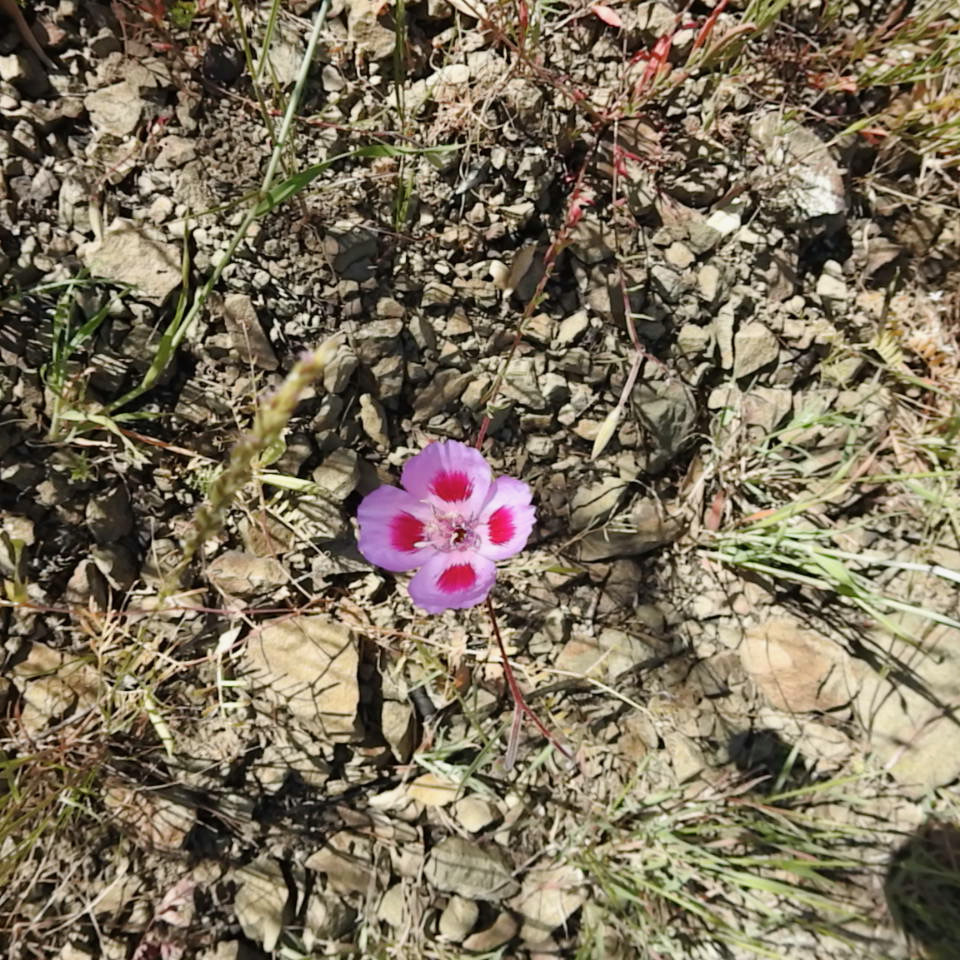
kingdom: Plantae
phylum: Tracheophyta
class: Magnoliopsida
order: Myrtales
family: Onagraceae
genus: Clarkia
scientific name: Clarkia amoena
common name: Godetia
